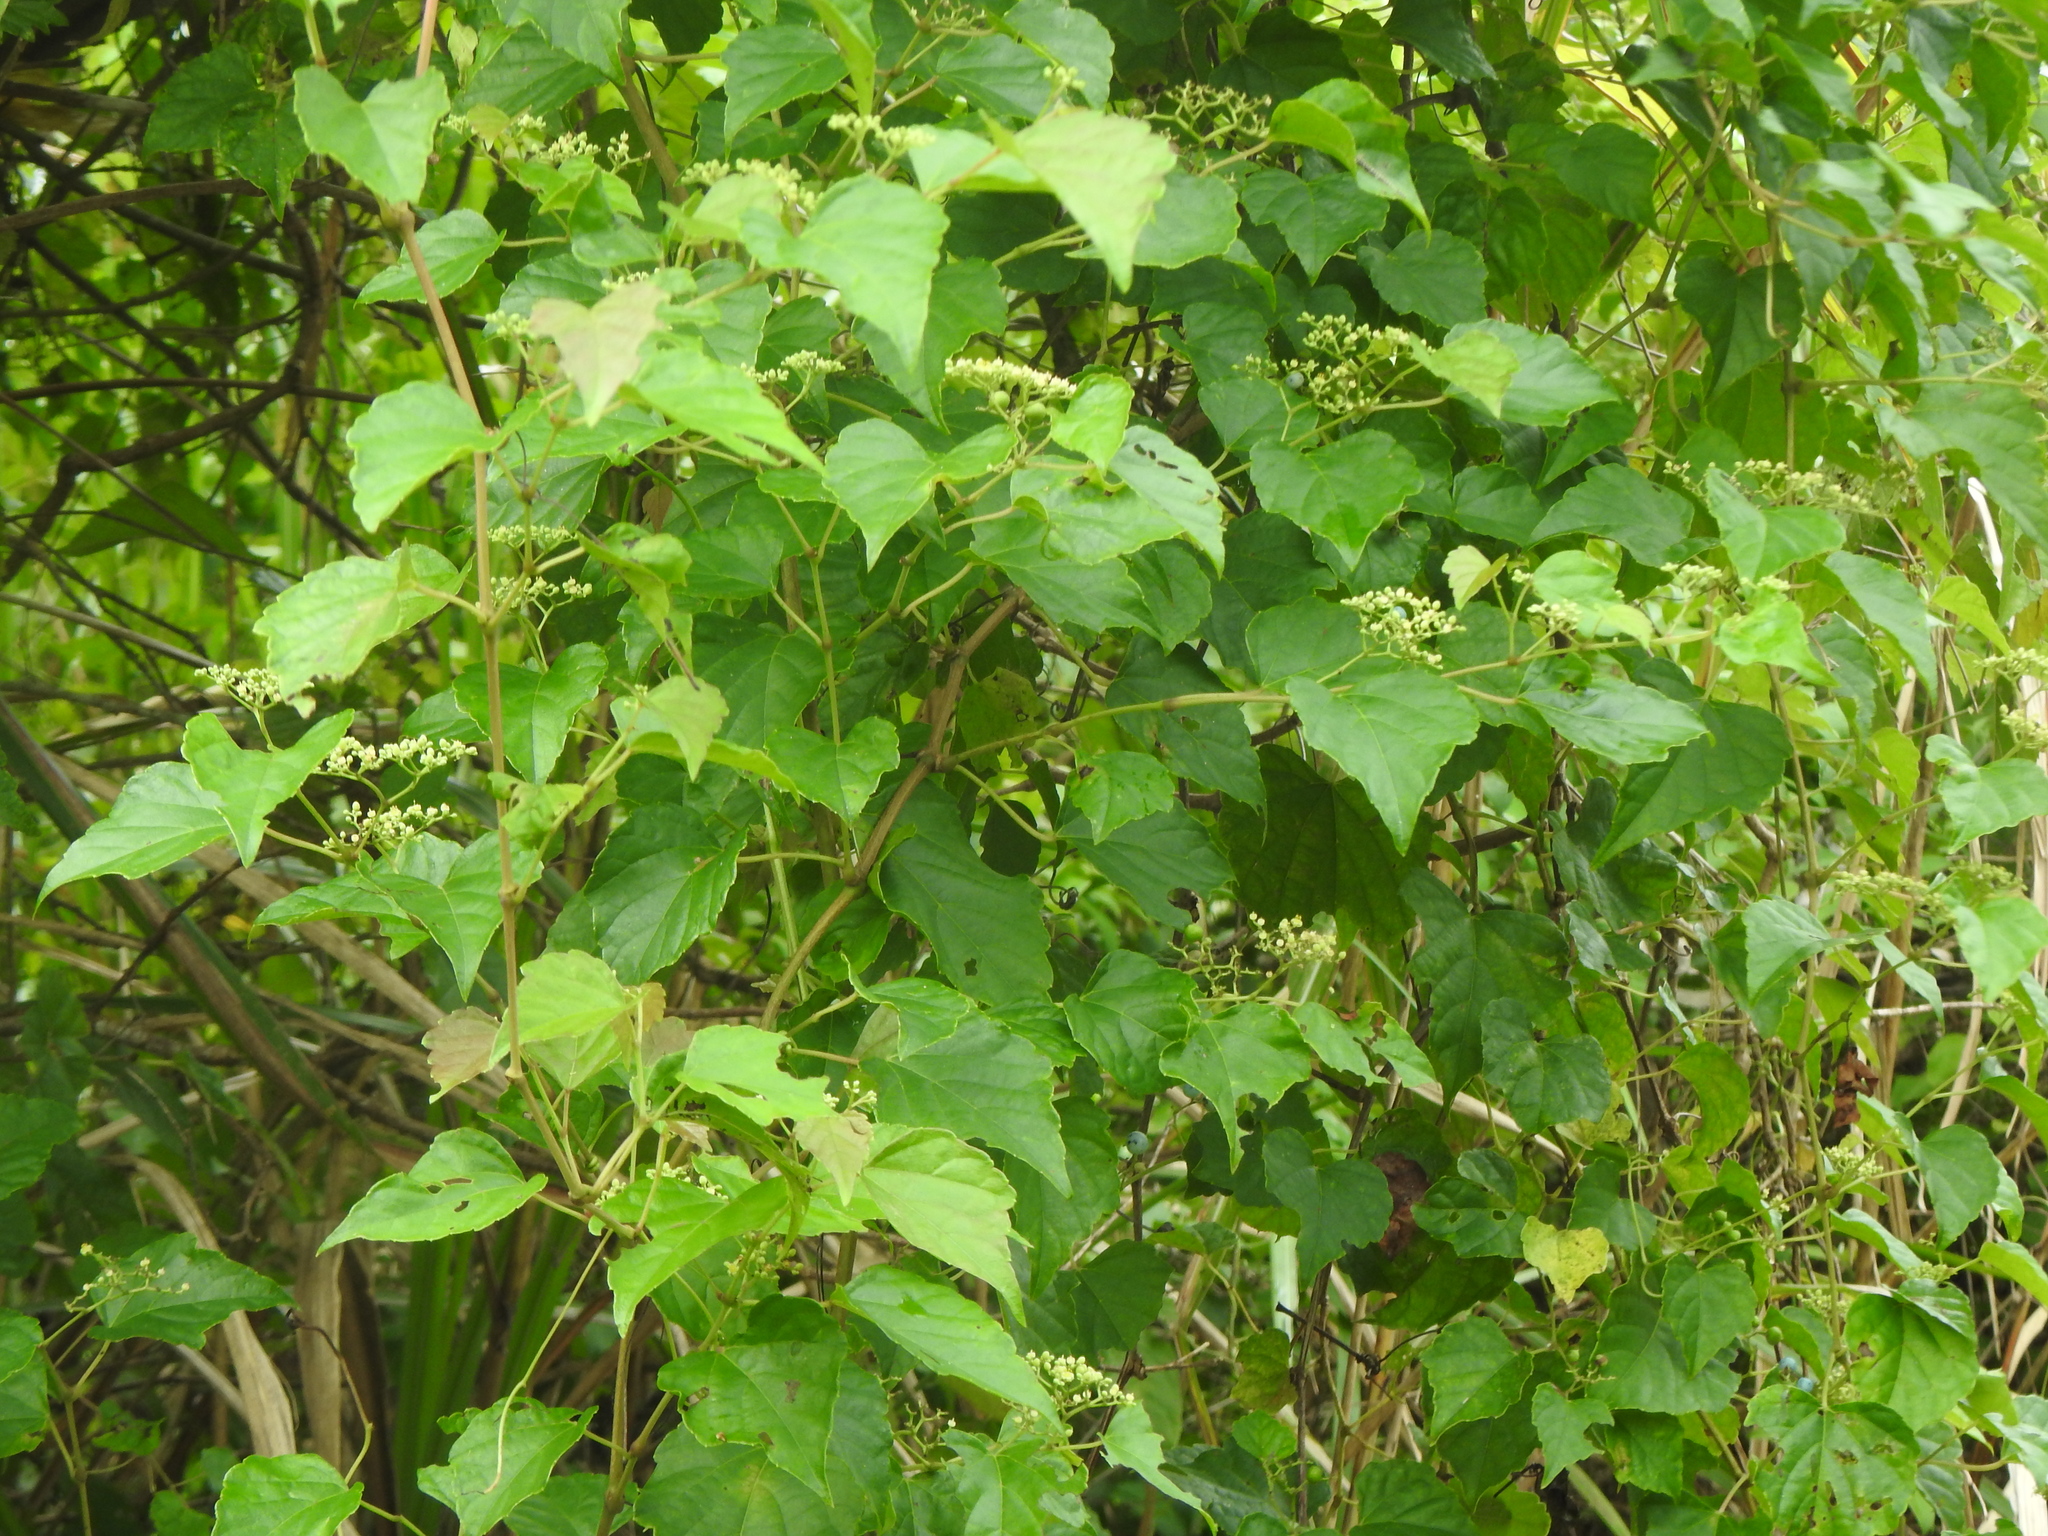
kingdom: Plantae
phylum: Tracheophyta
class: Magnoliopsida
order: Vitales
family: Vitaceae
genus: Ampelopsis
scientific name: Ampelopsis glandulosa
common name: Amur peppervine
